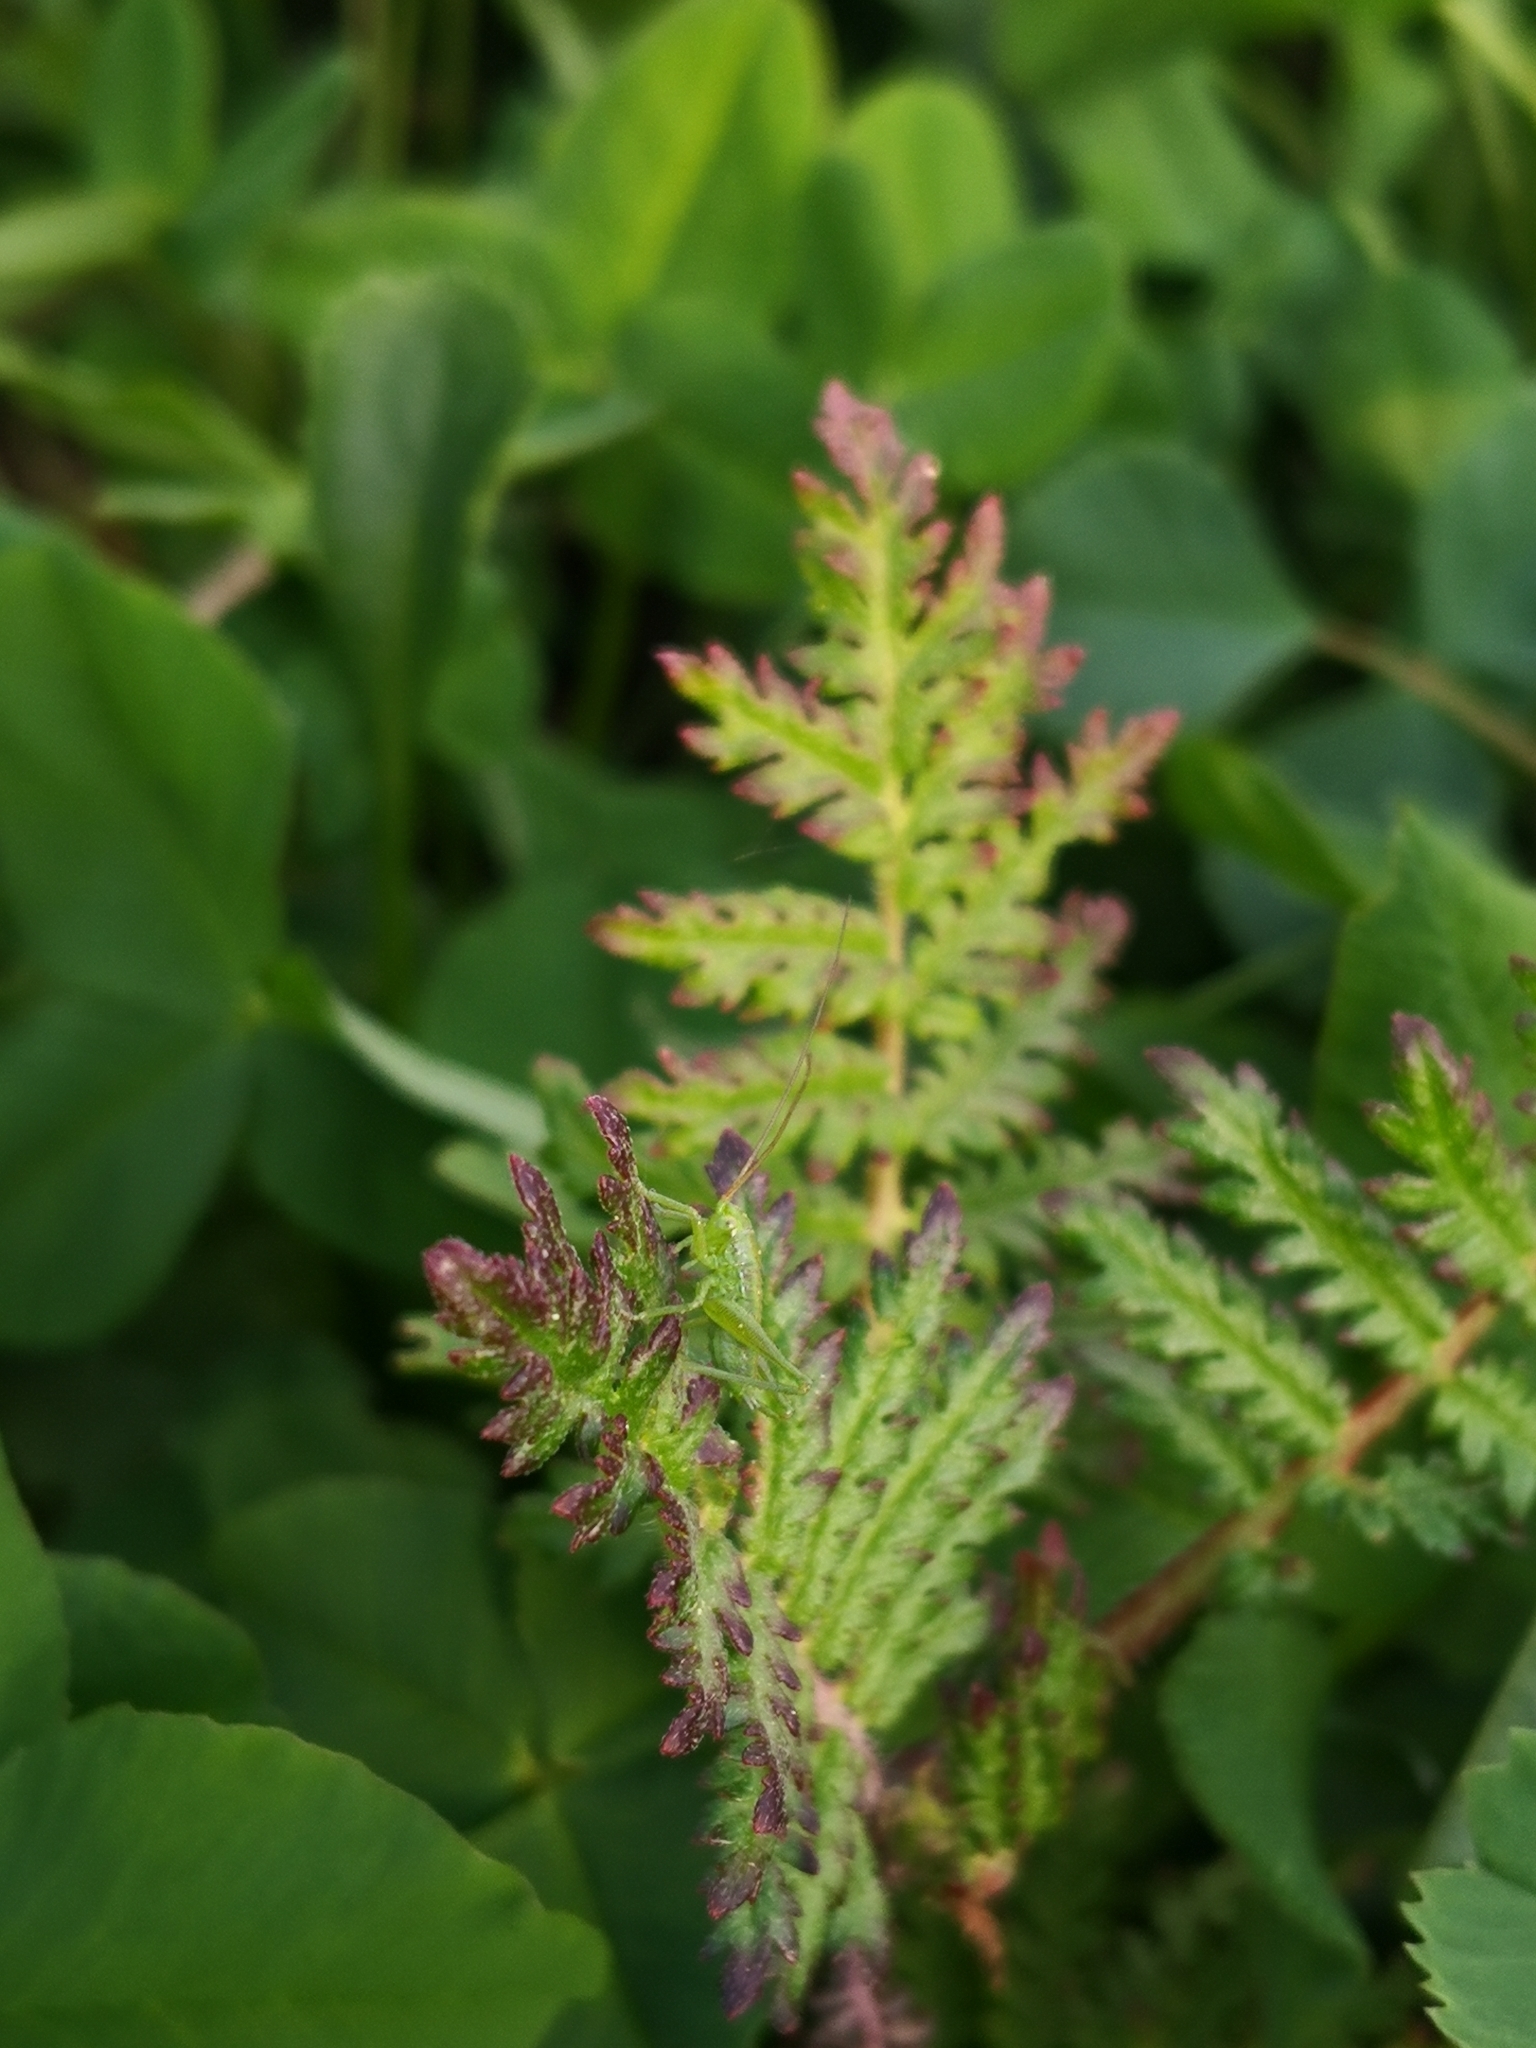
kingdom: Animalia
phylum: Arthropoda
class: Insecta
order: Orthoptera
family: Tettigoniidae
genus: Tettigonia
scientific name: Tettigonia viridissima
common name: Great green bush-cricket
